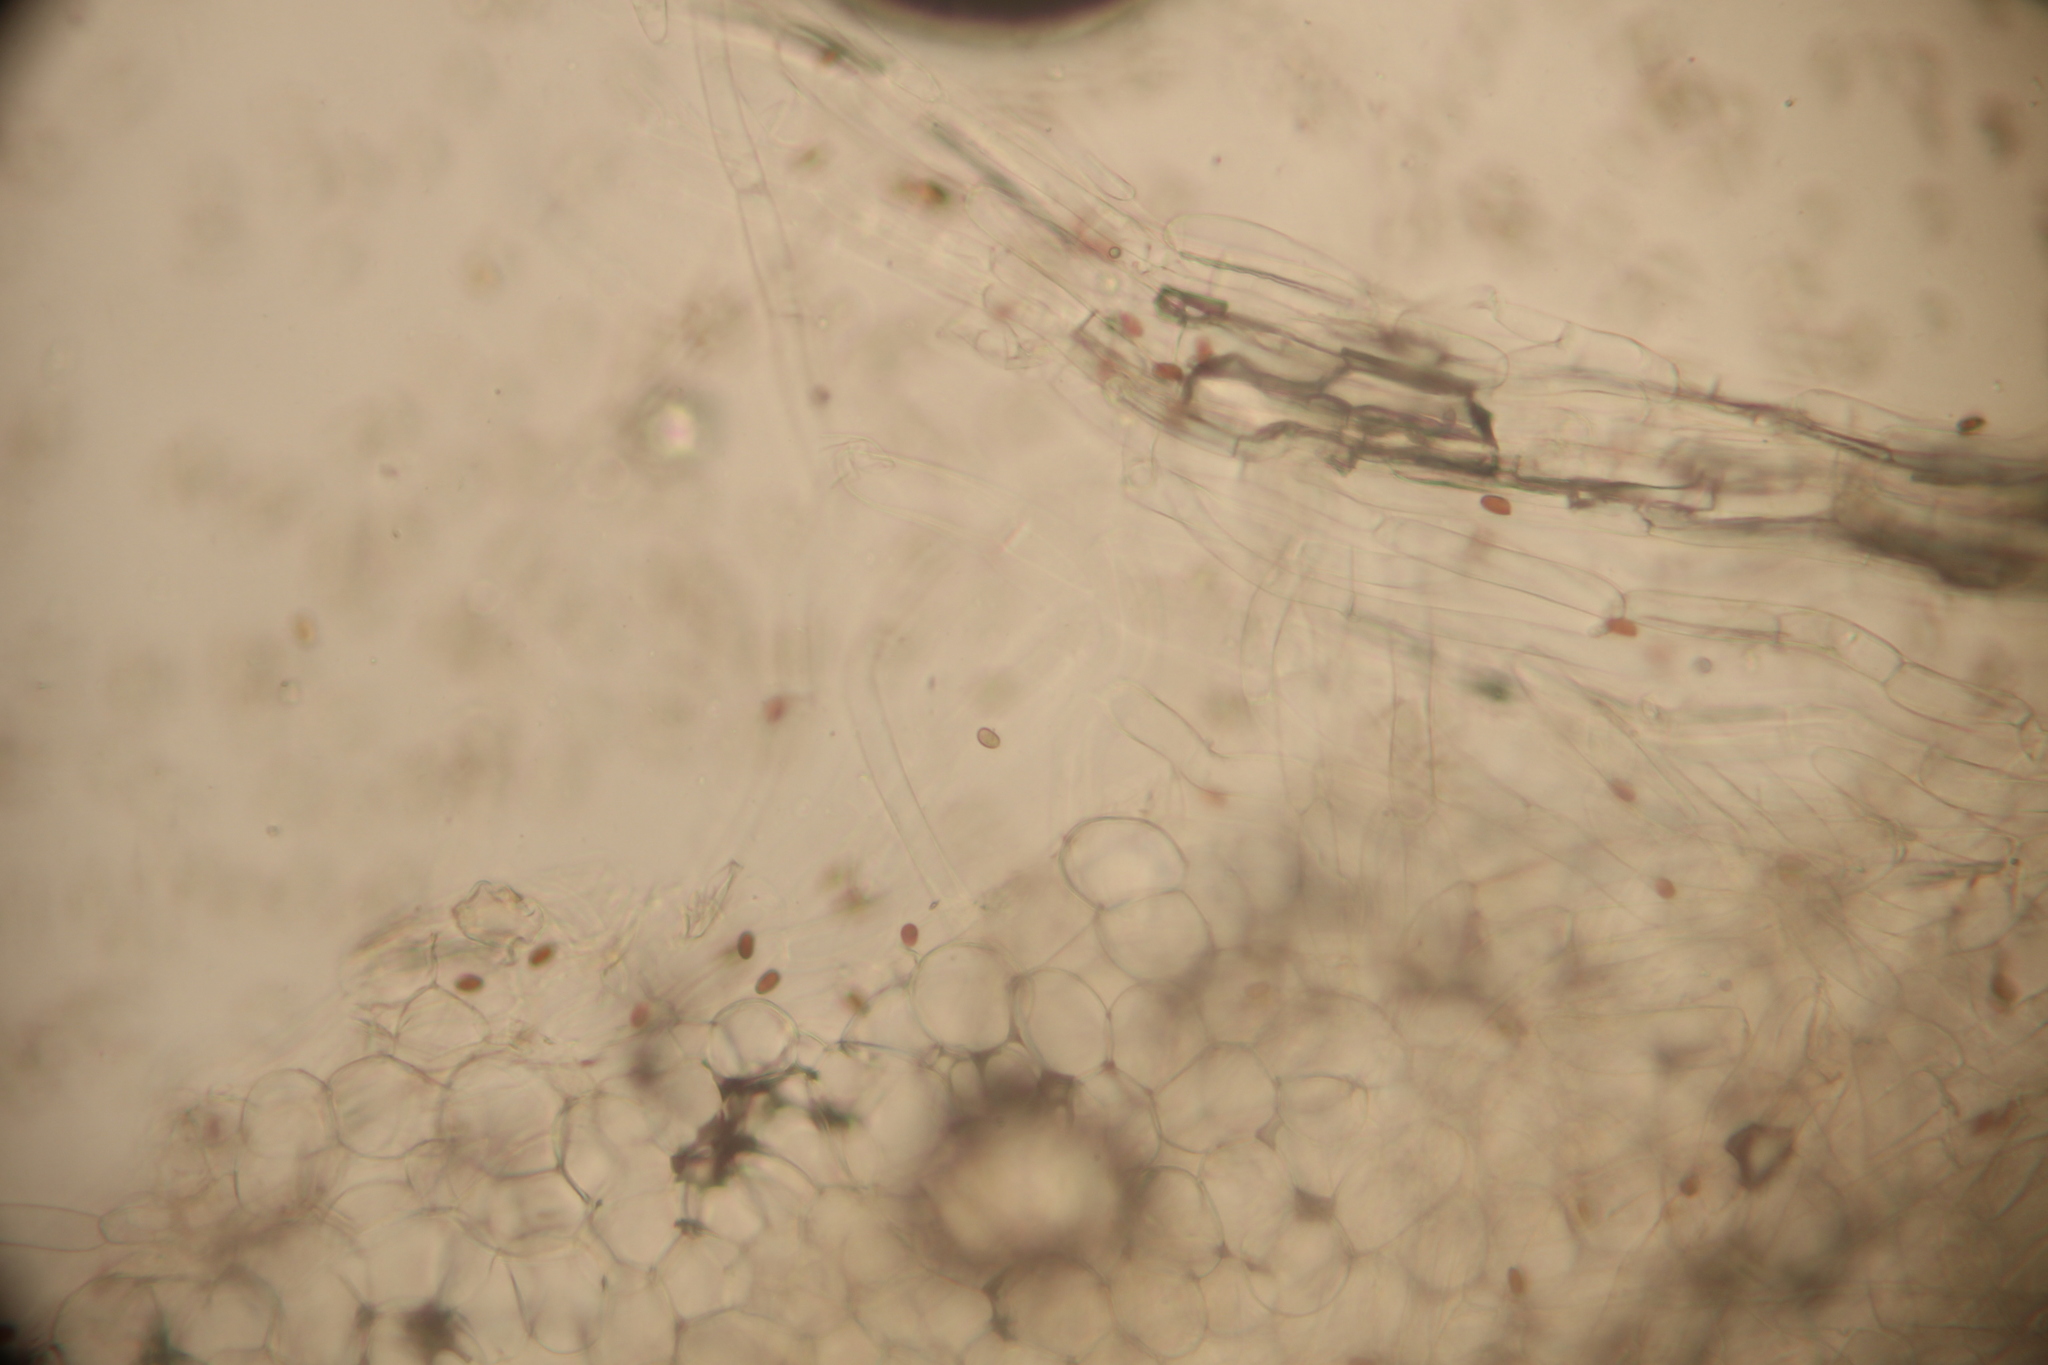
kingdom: Fungi
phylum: Basidiomycota
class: Agaricomycetes
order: Agaricales
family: Psathyrellaceae
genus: Psathyrella
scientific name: Psathyrella mucrocystis
